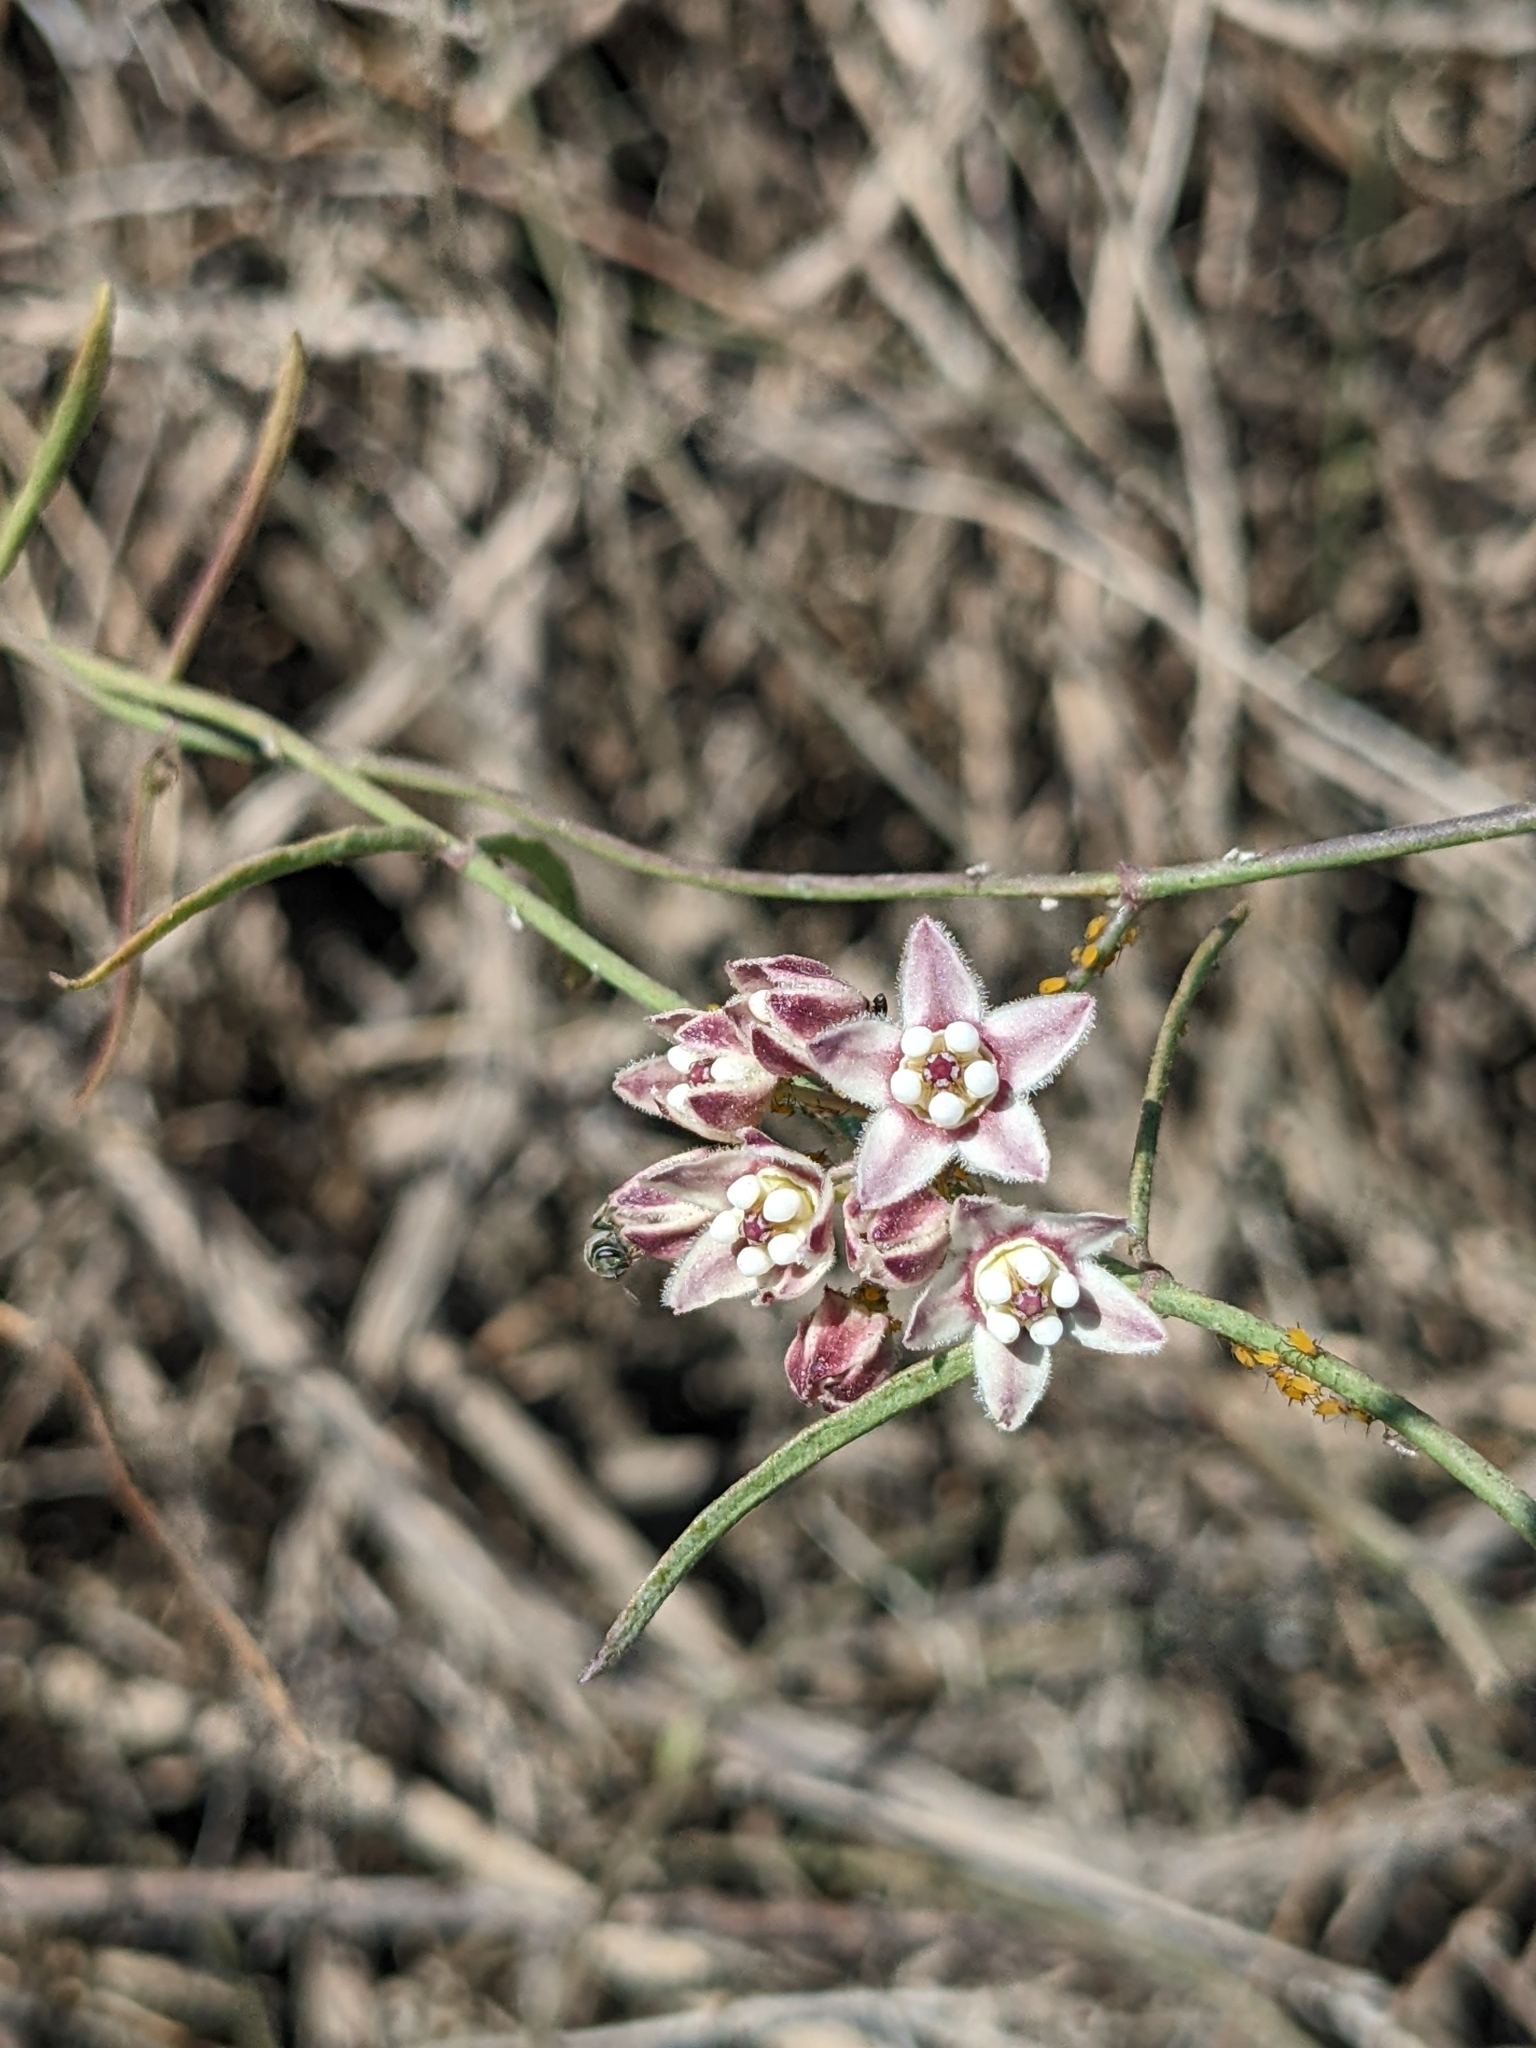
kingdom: Plantae
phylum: Tracheophyta
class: Magnoliopsida
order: Gentianales
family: Apocynaceae
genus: Funastrum
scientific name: Funastrum heterophyllum
